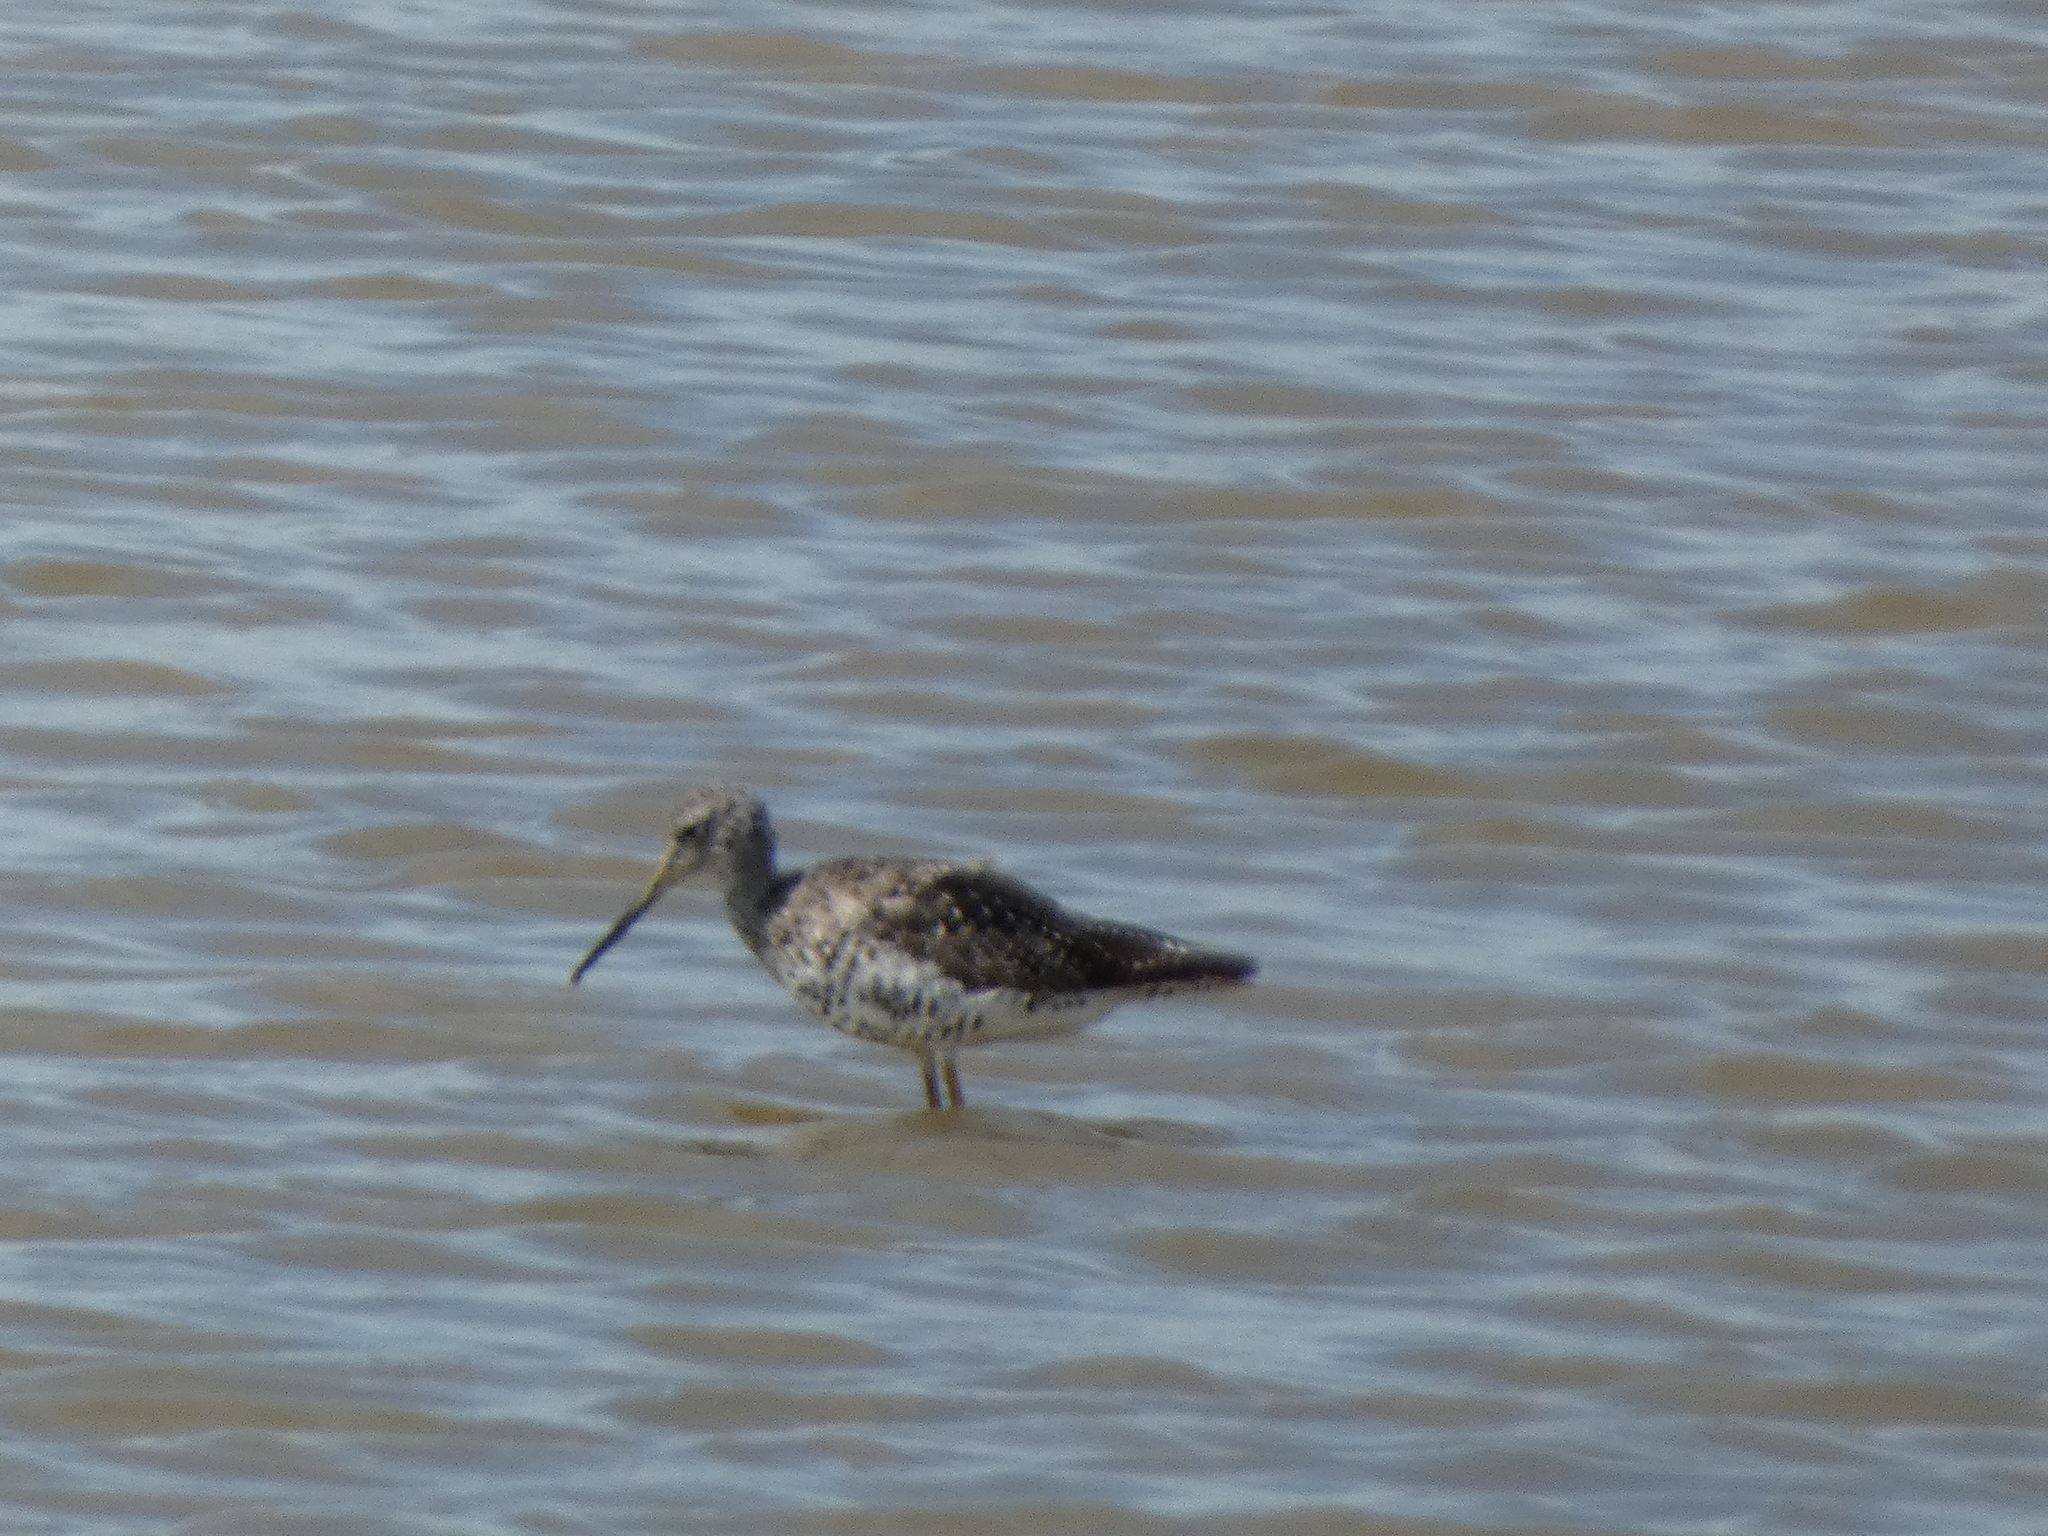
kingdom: Animalia
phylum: Chordata
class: Aves
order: Charadriiformes
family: Scolopacidae
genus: Tringa
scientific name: Tringa melanoleuca
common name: Greater yellowlegs
